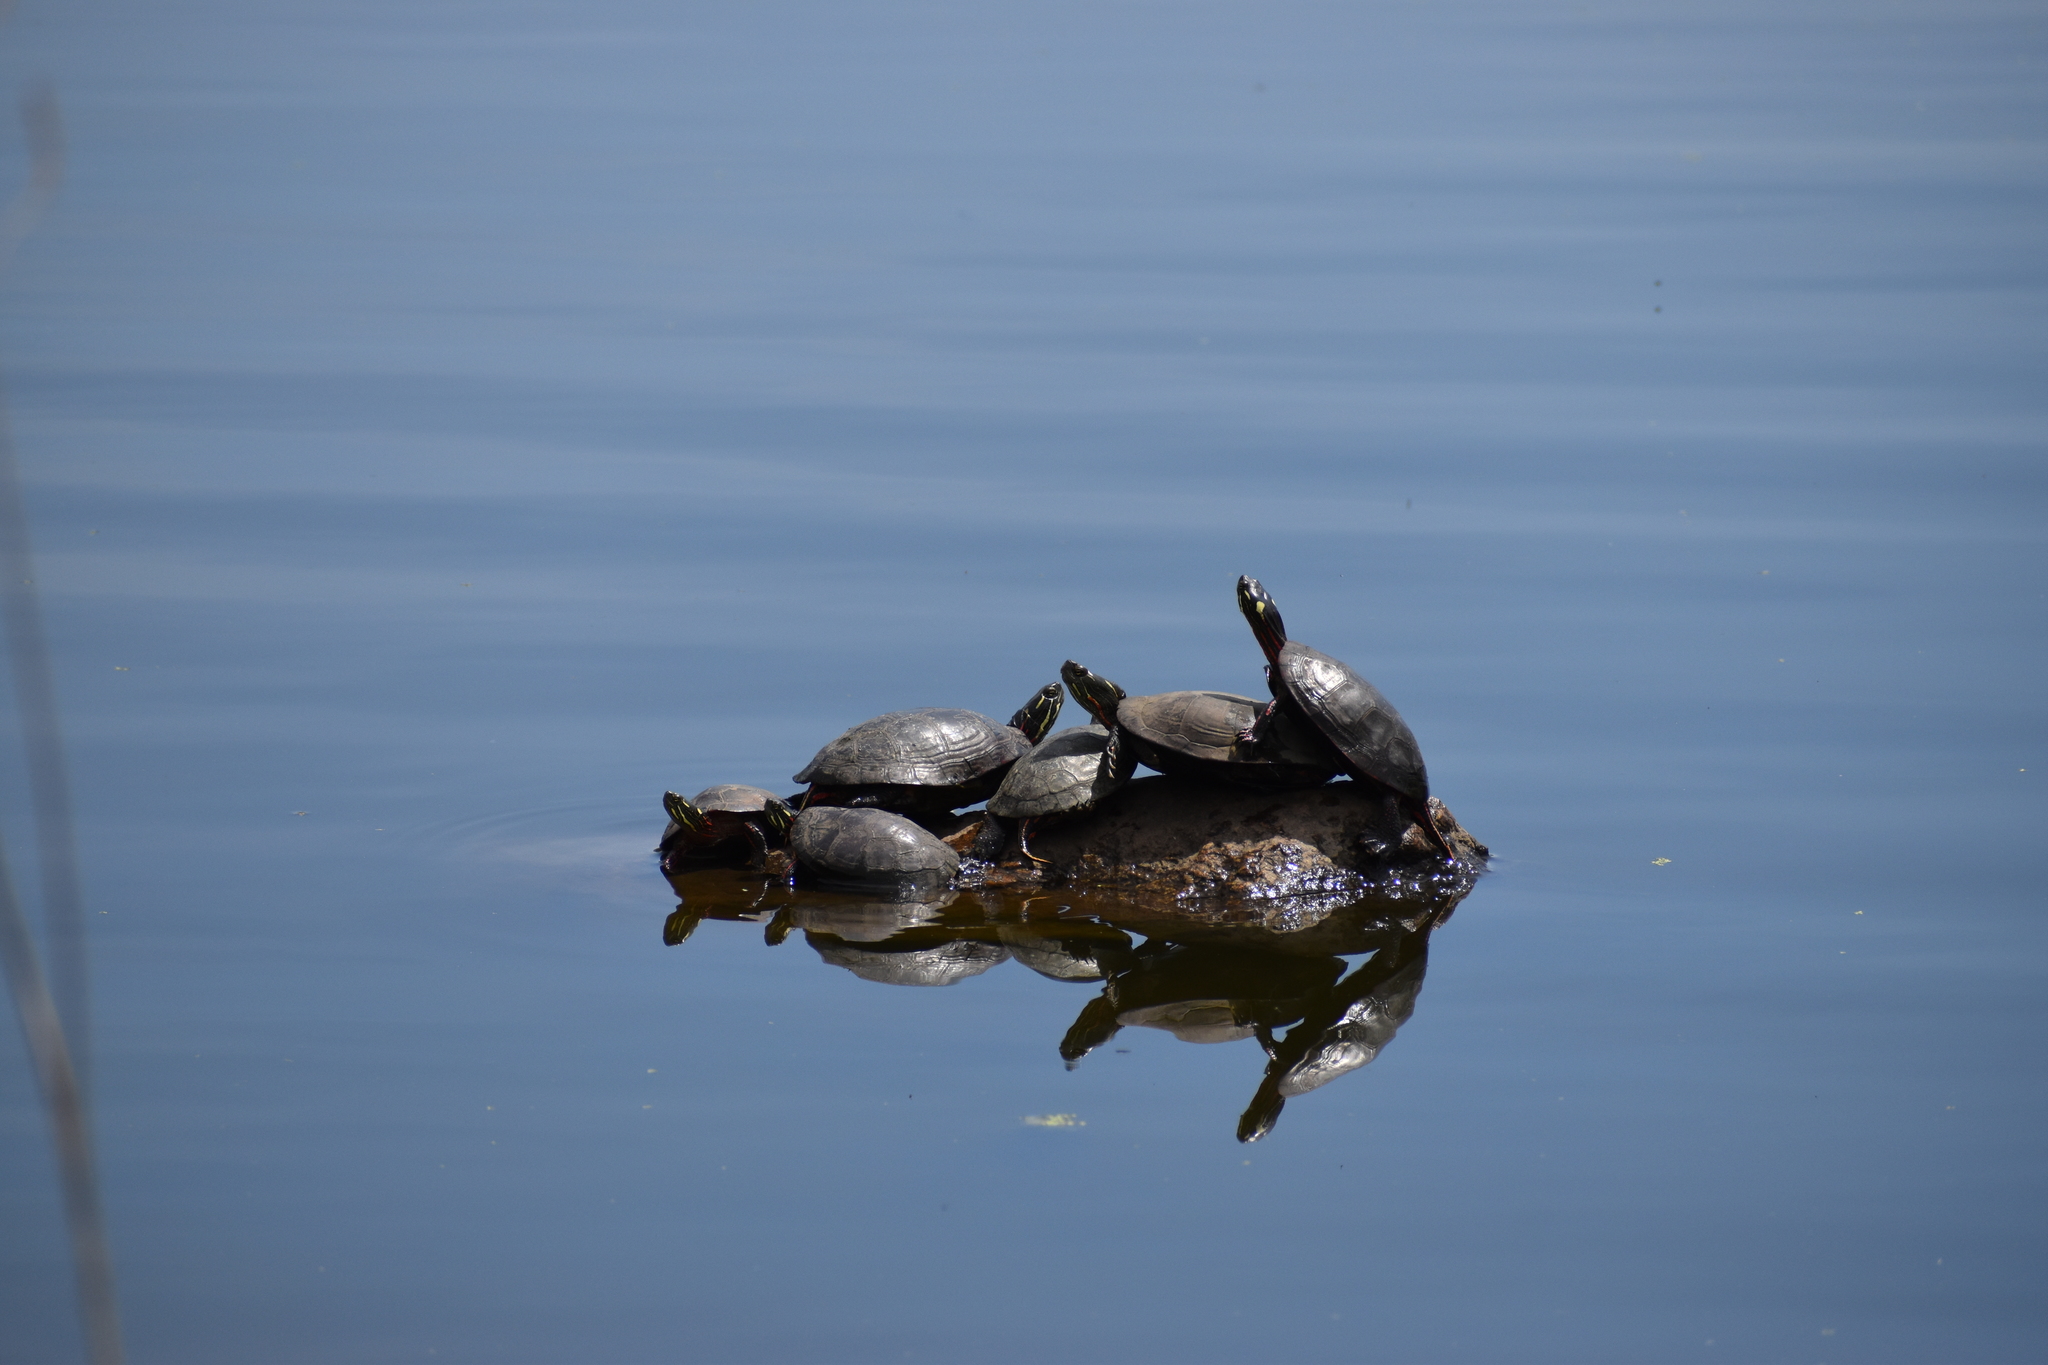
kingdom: Animalia
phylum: Chordata
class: Testudines
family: Emydidae
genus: Chrysemys
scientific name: Chrysemys picta
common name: Painted turtle
